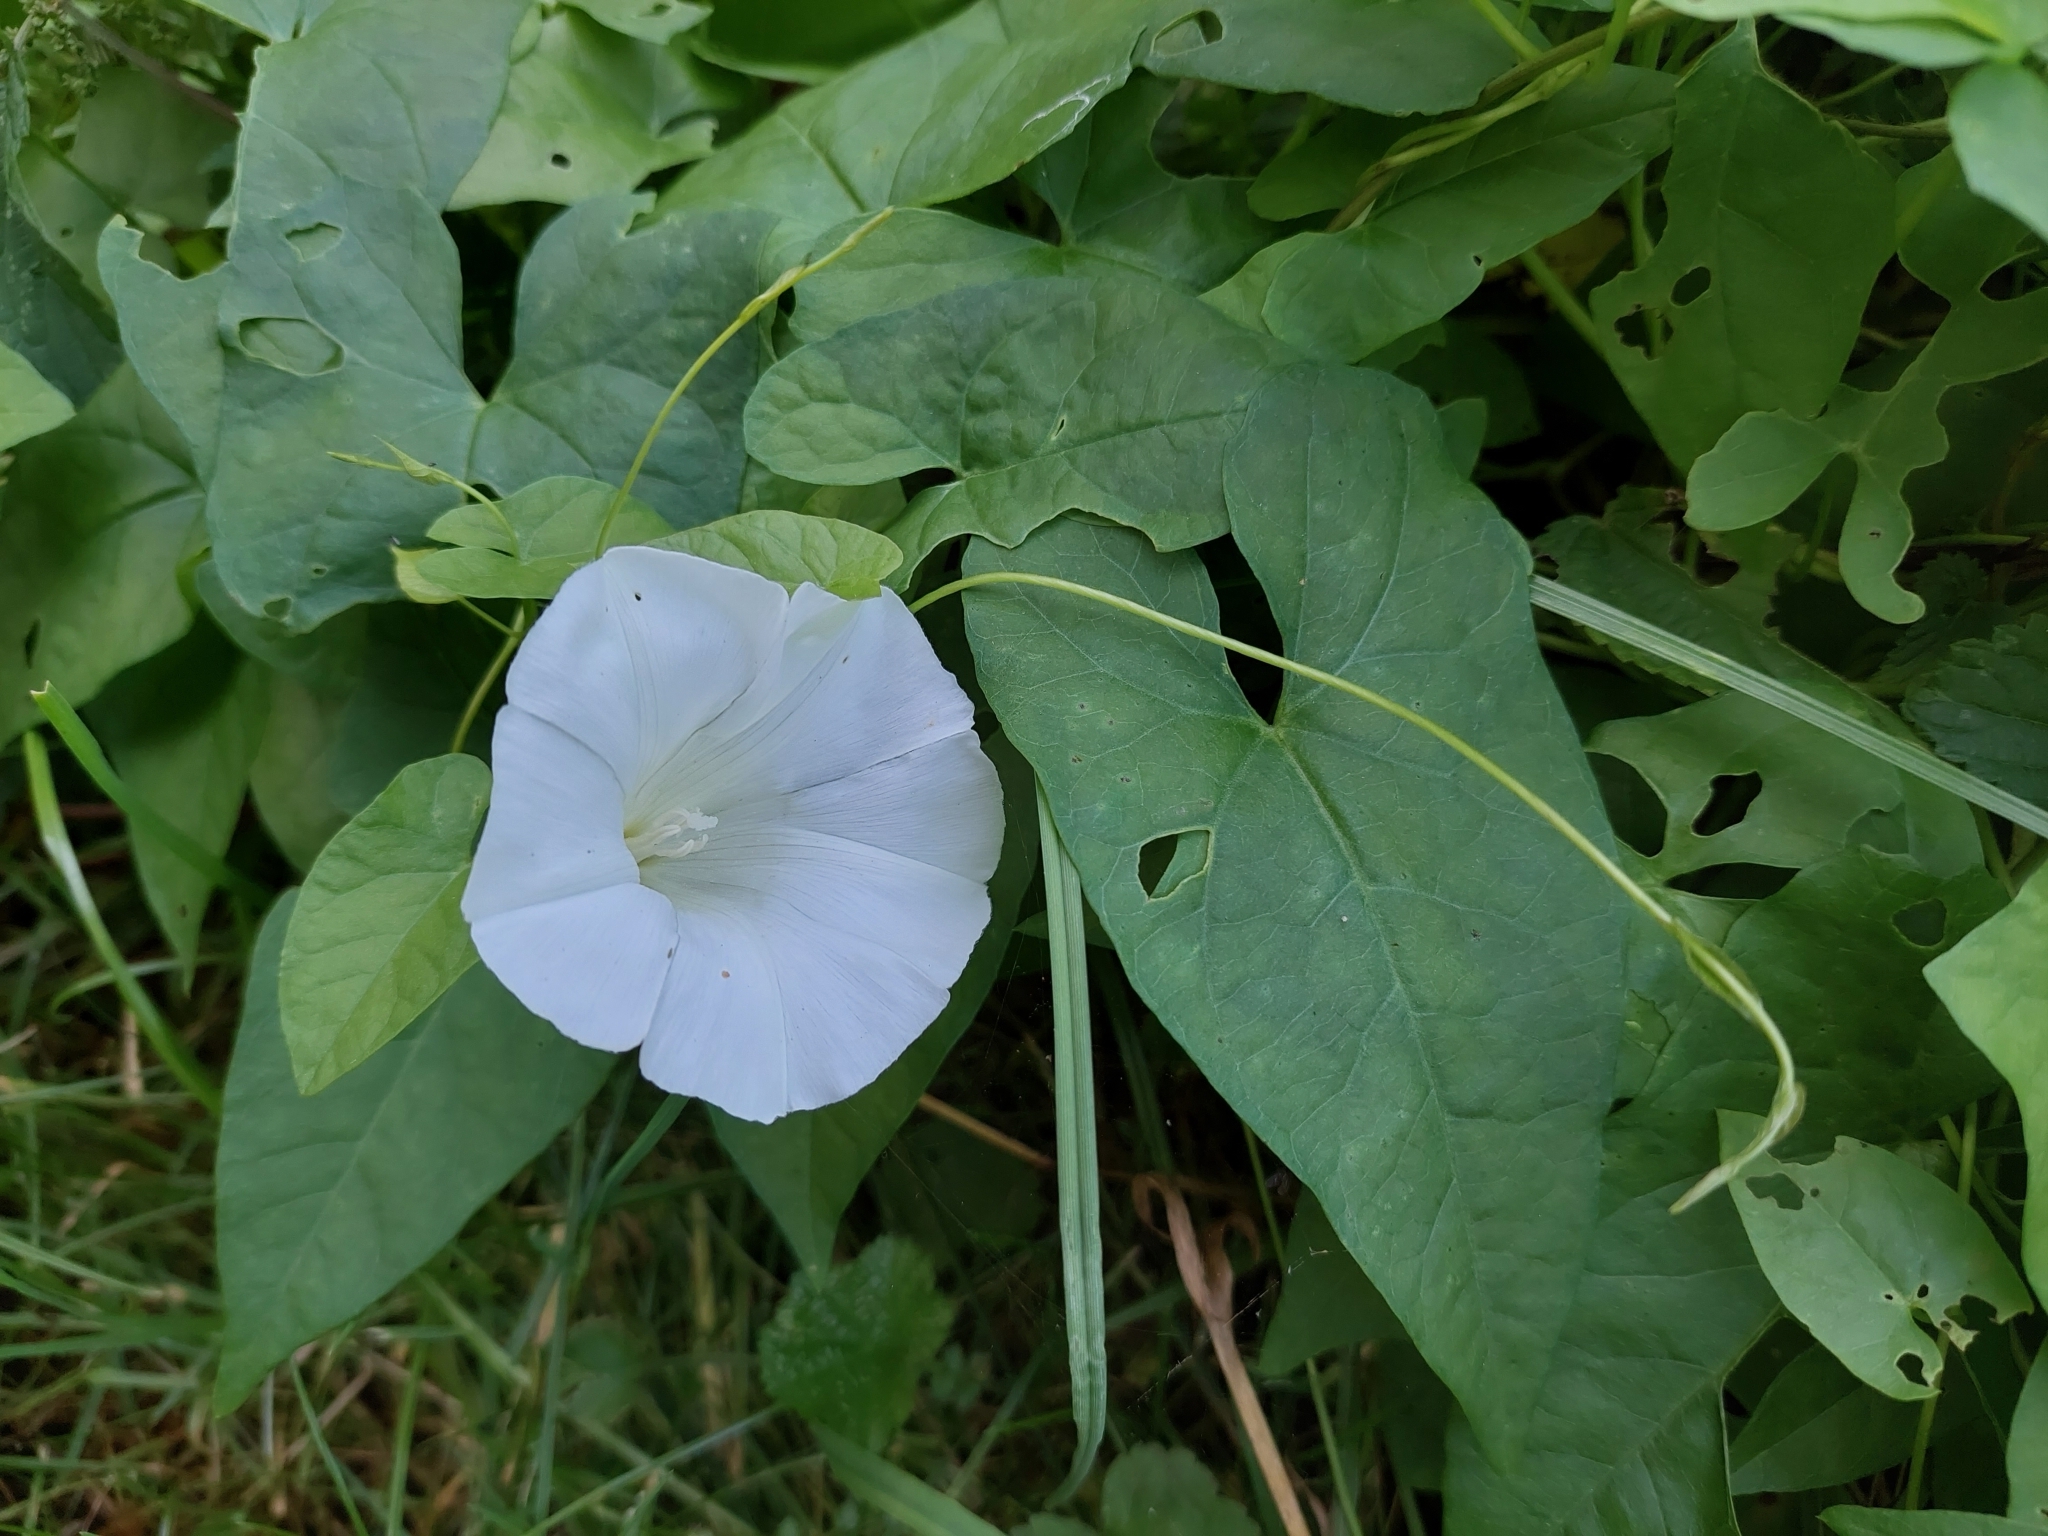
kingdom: Plantae
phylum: Tracheophyta
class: Magnoliopsida
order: Solanales
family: Convolvulaceae
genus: Calystegia
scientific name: Calystegia sepium
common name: Hedge bindweed
